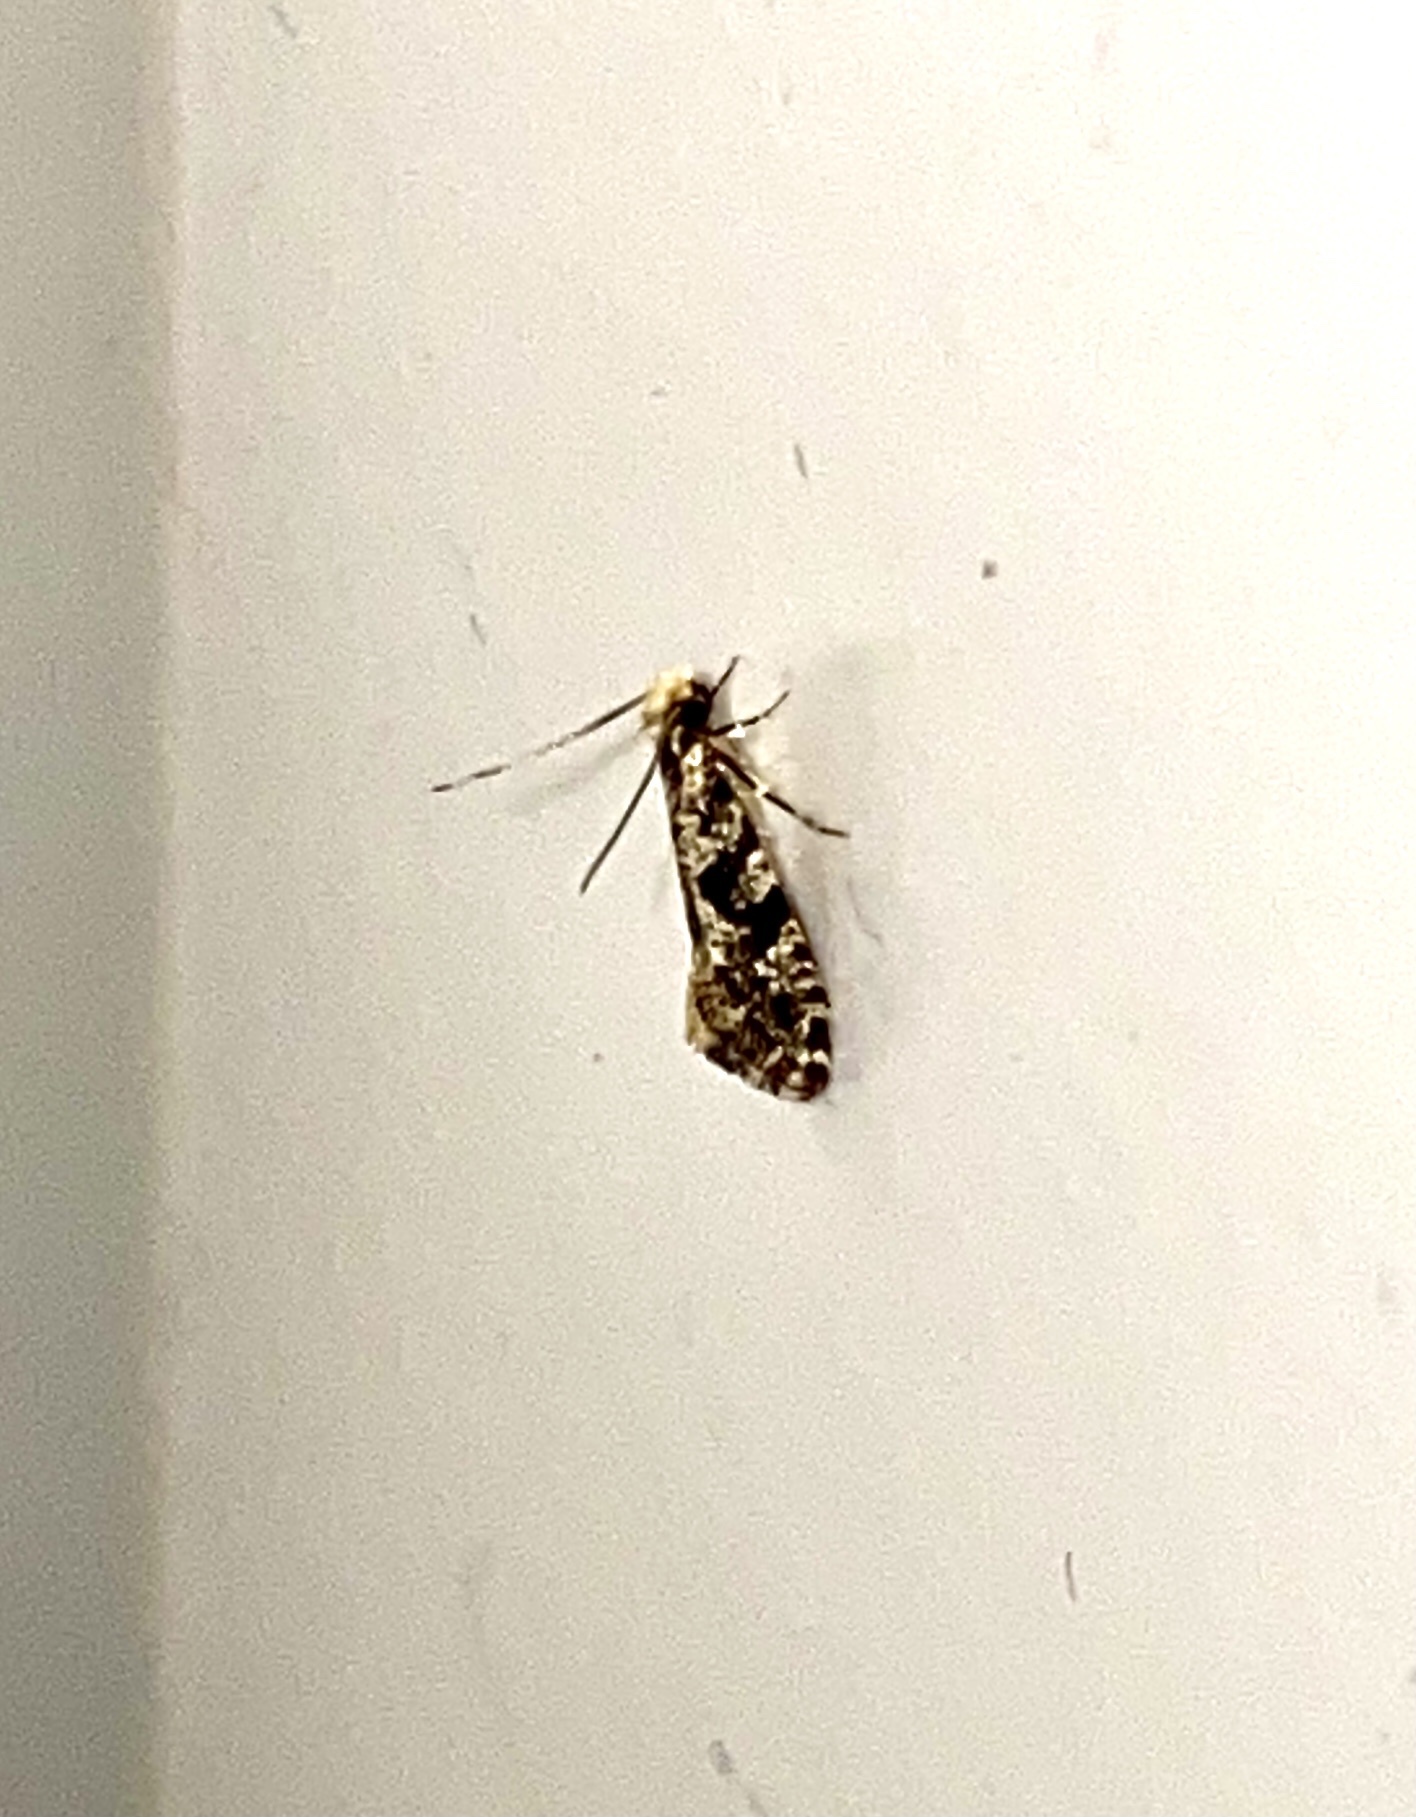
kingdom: Animalia
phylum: Arthropoda
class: Insecta
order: Lepidoptera
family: Tineidae
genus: Nemapogon
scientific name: Nemapogon granella
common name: European grain moth
